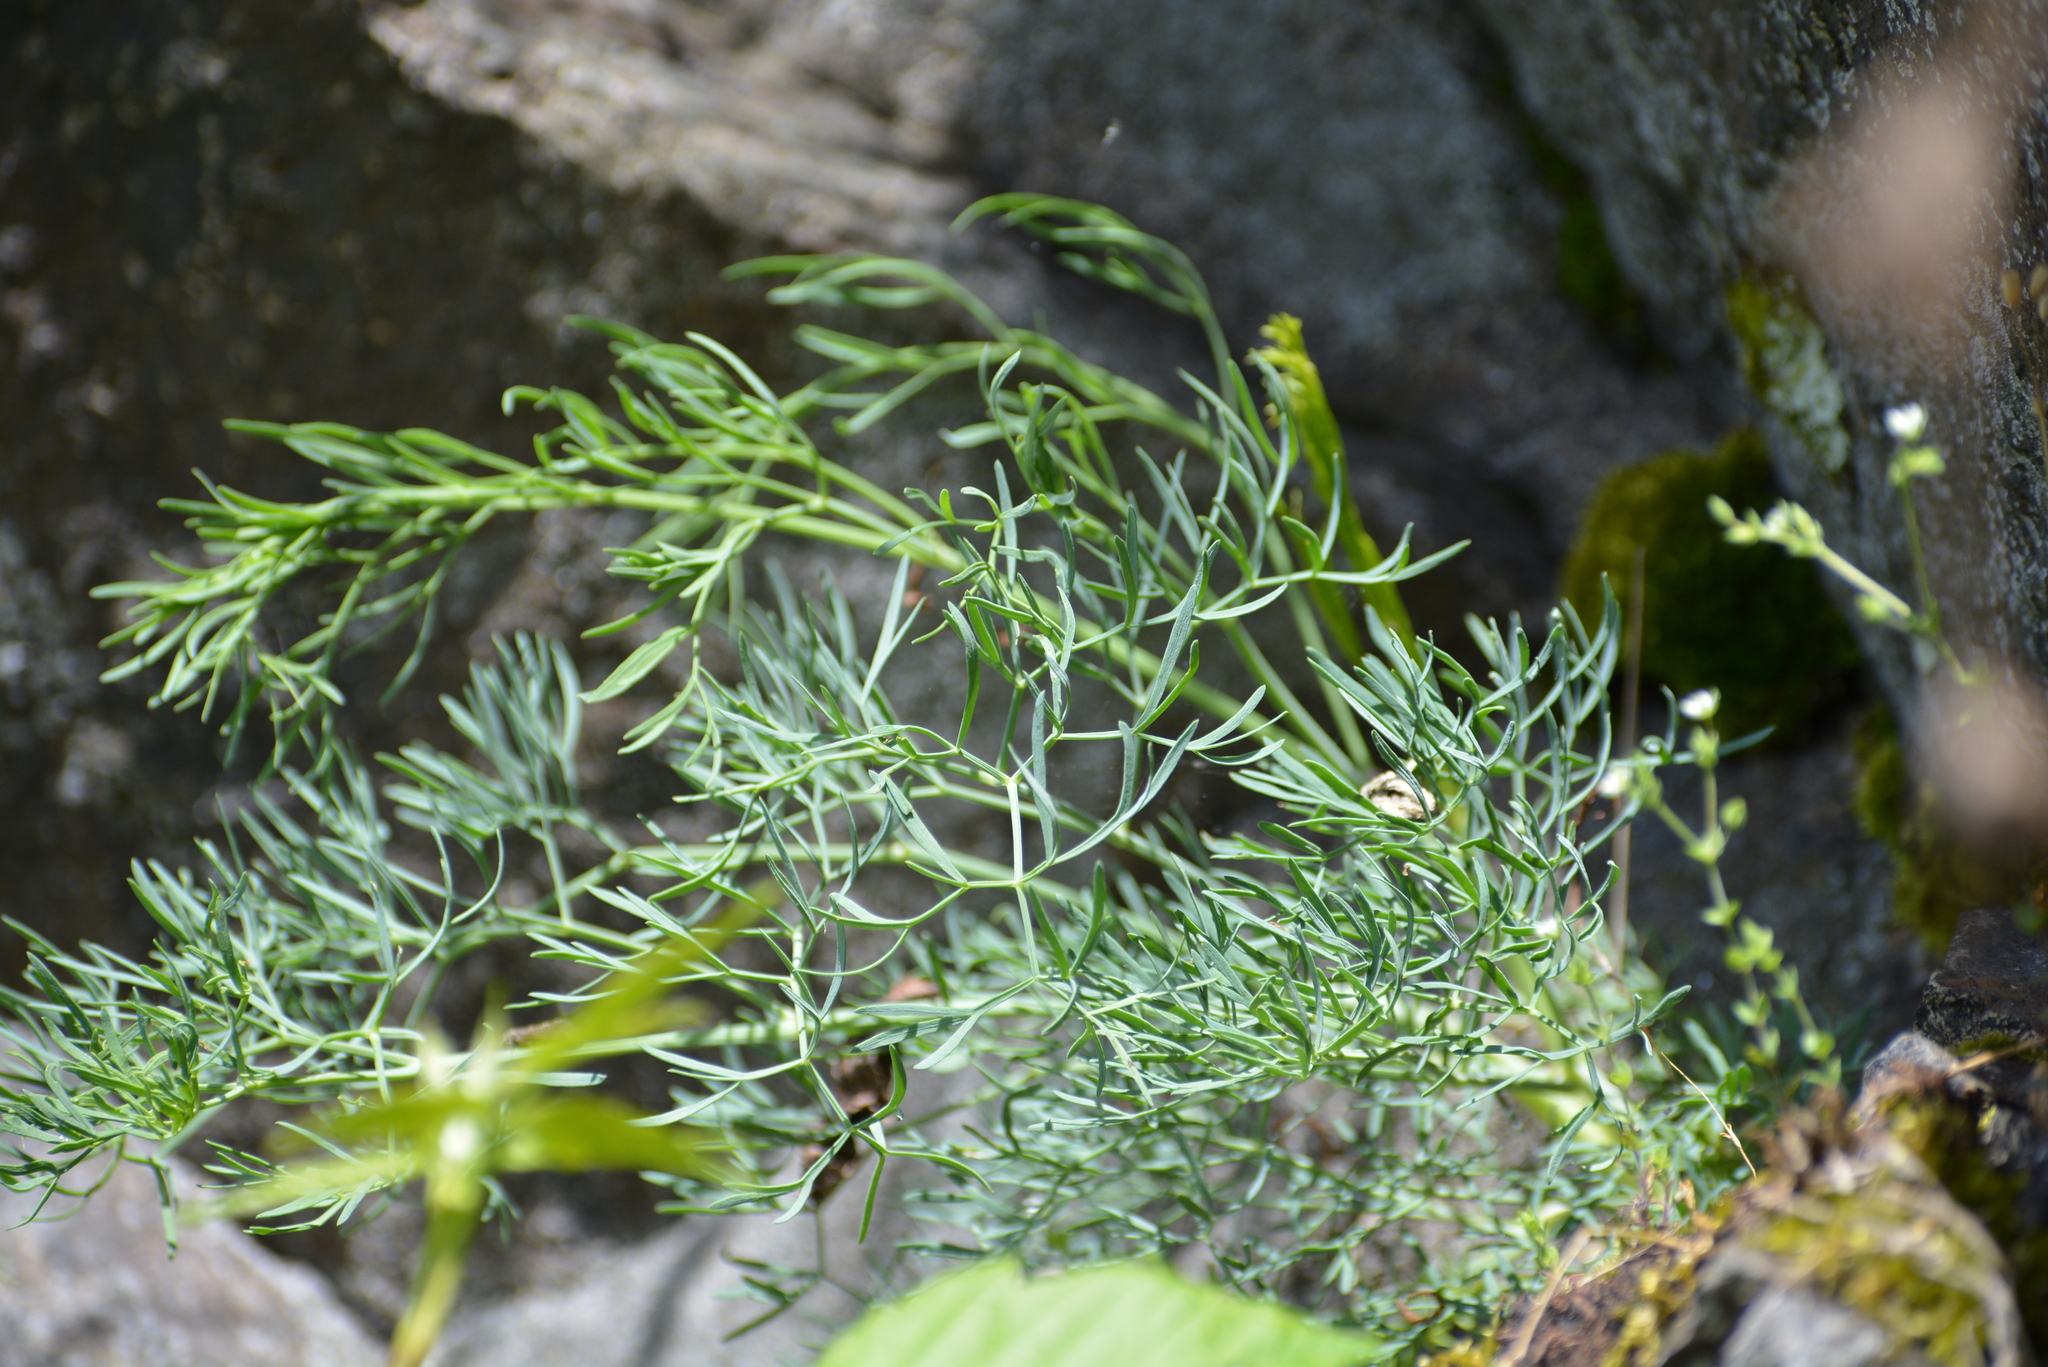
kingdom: Plantae
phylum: Tracheophyta
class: Magnoliopsida
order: Apiales
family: Apiaceae
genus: Seseli
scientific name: Seseli osseum
